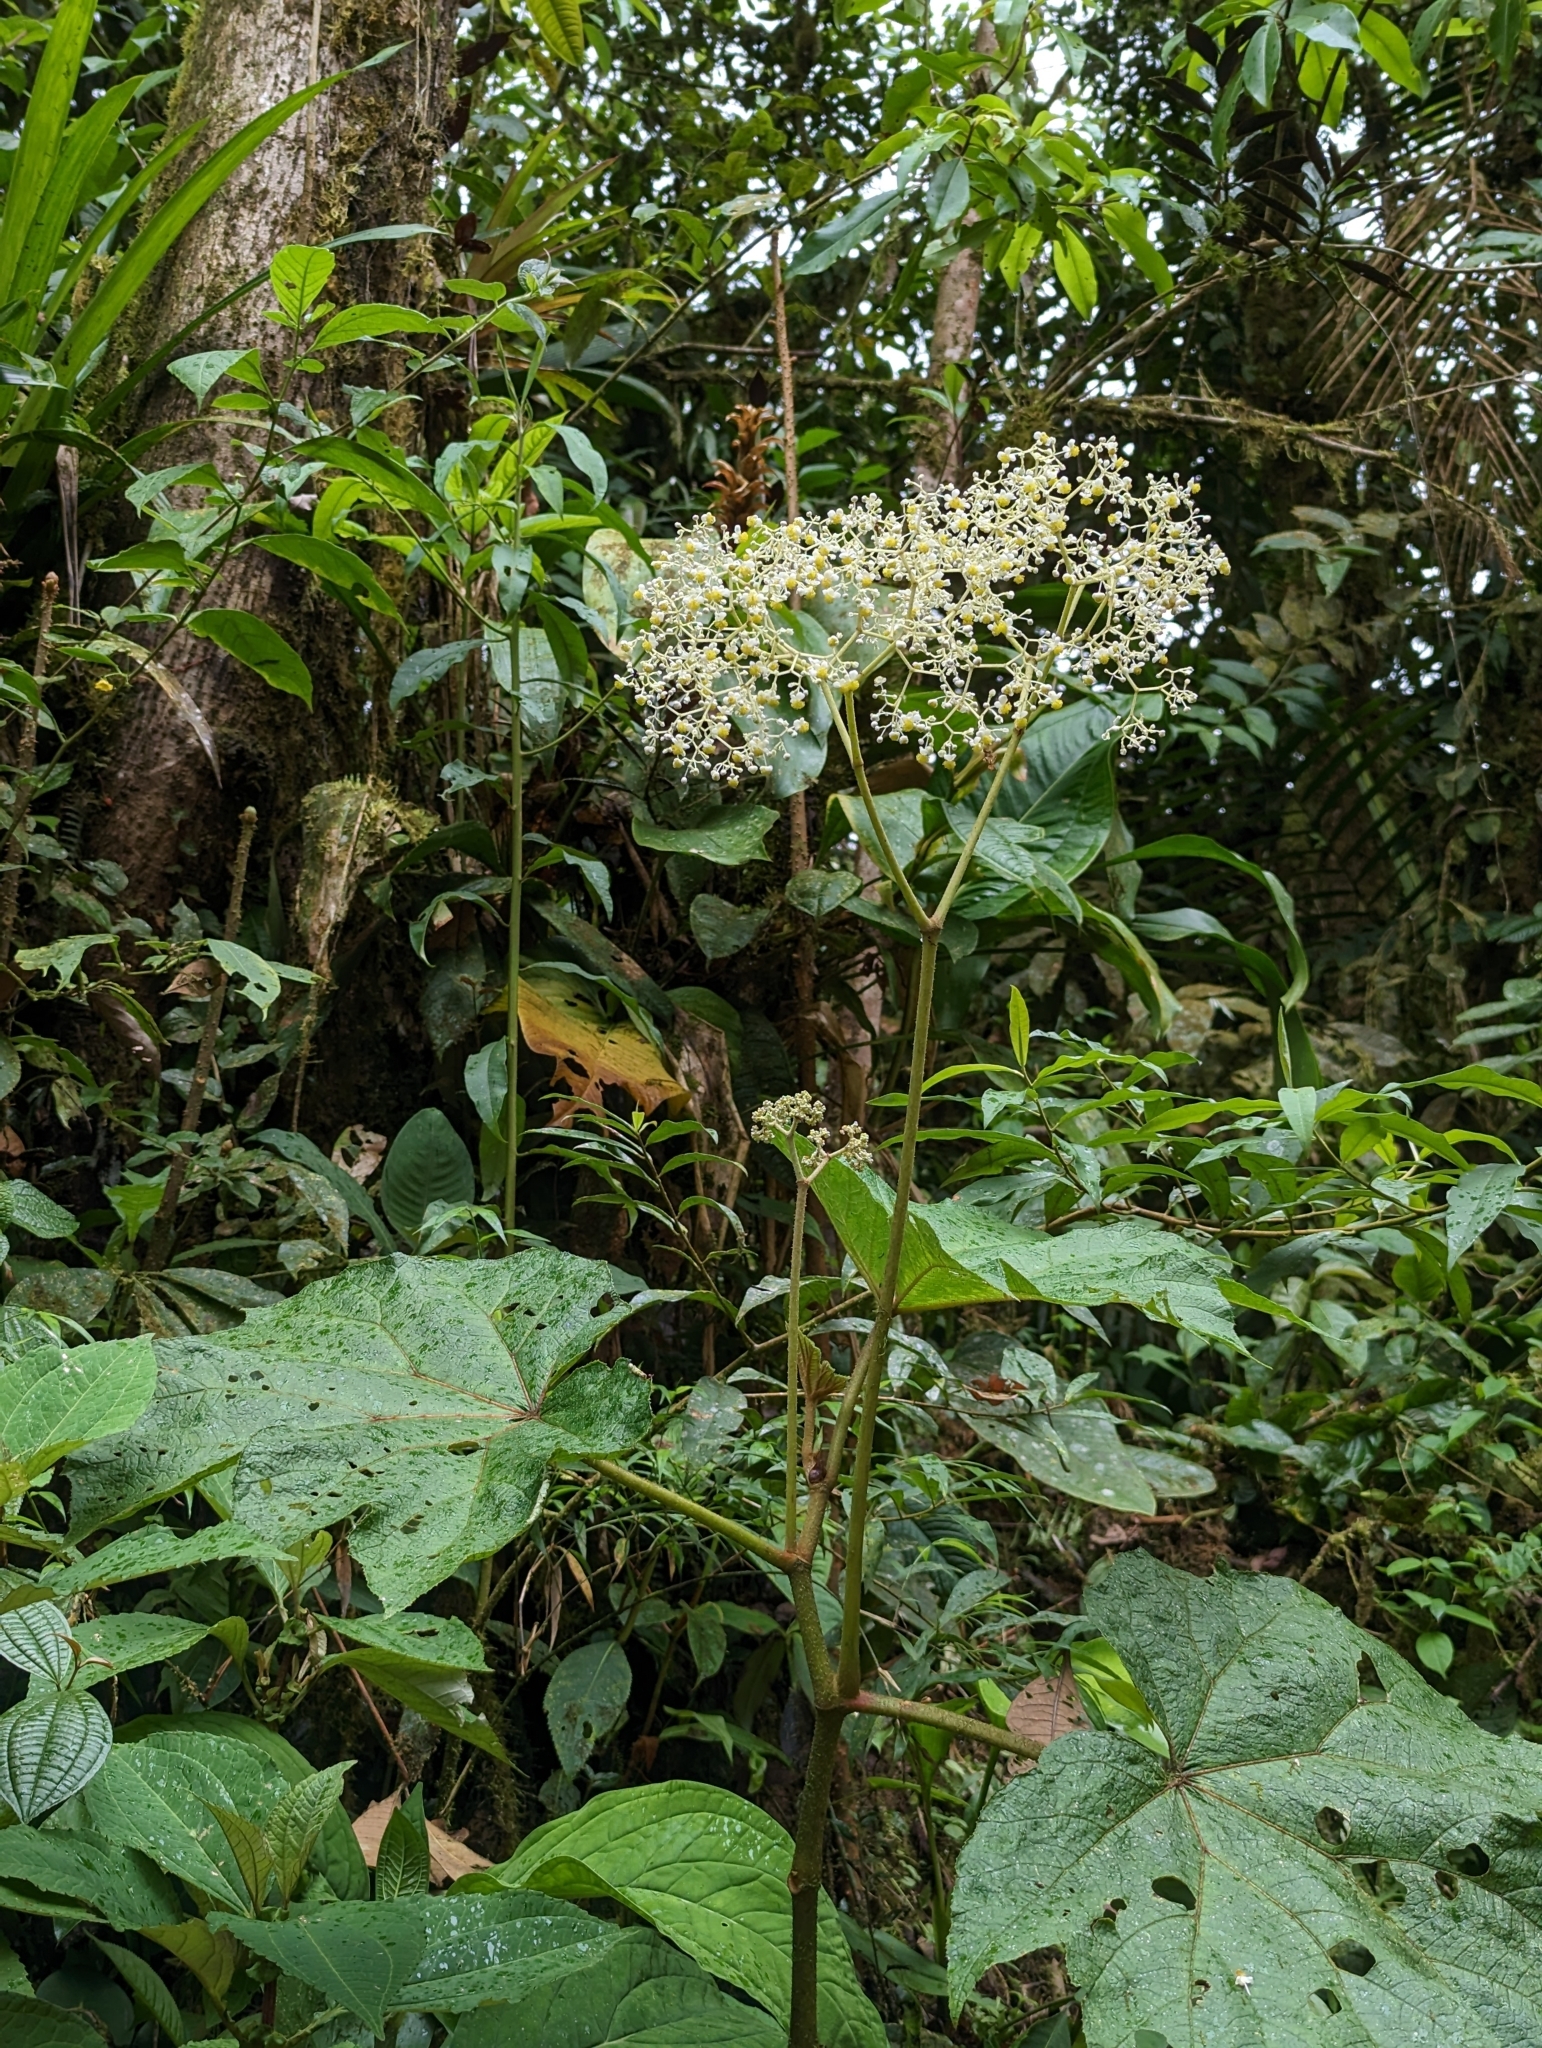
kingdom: Plantae
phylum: Tracheophyta
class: Magnoliopsida
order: Cucurbitales
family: Begoniaceae
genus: Begonia
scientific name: Begonia parviflora
